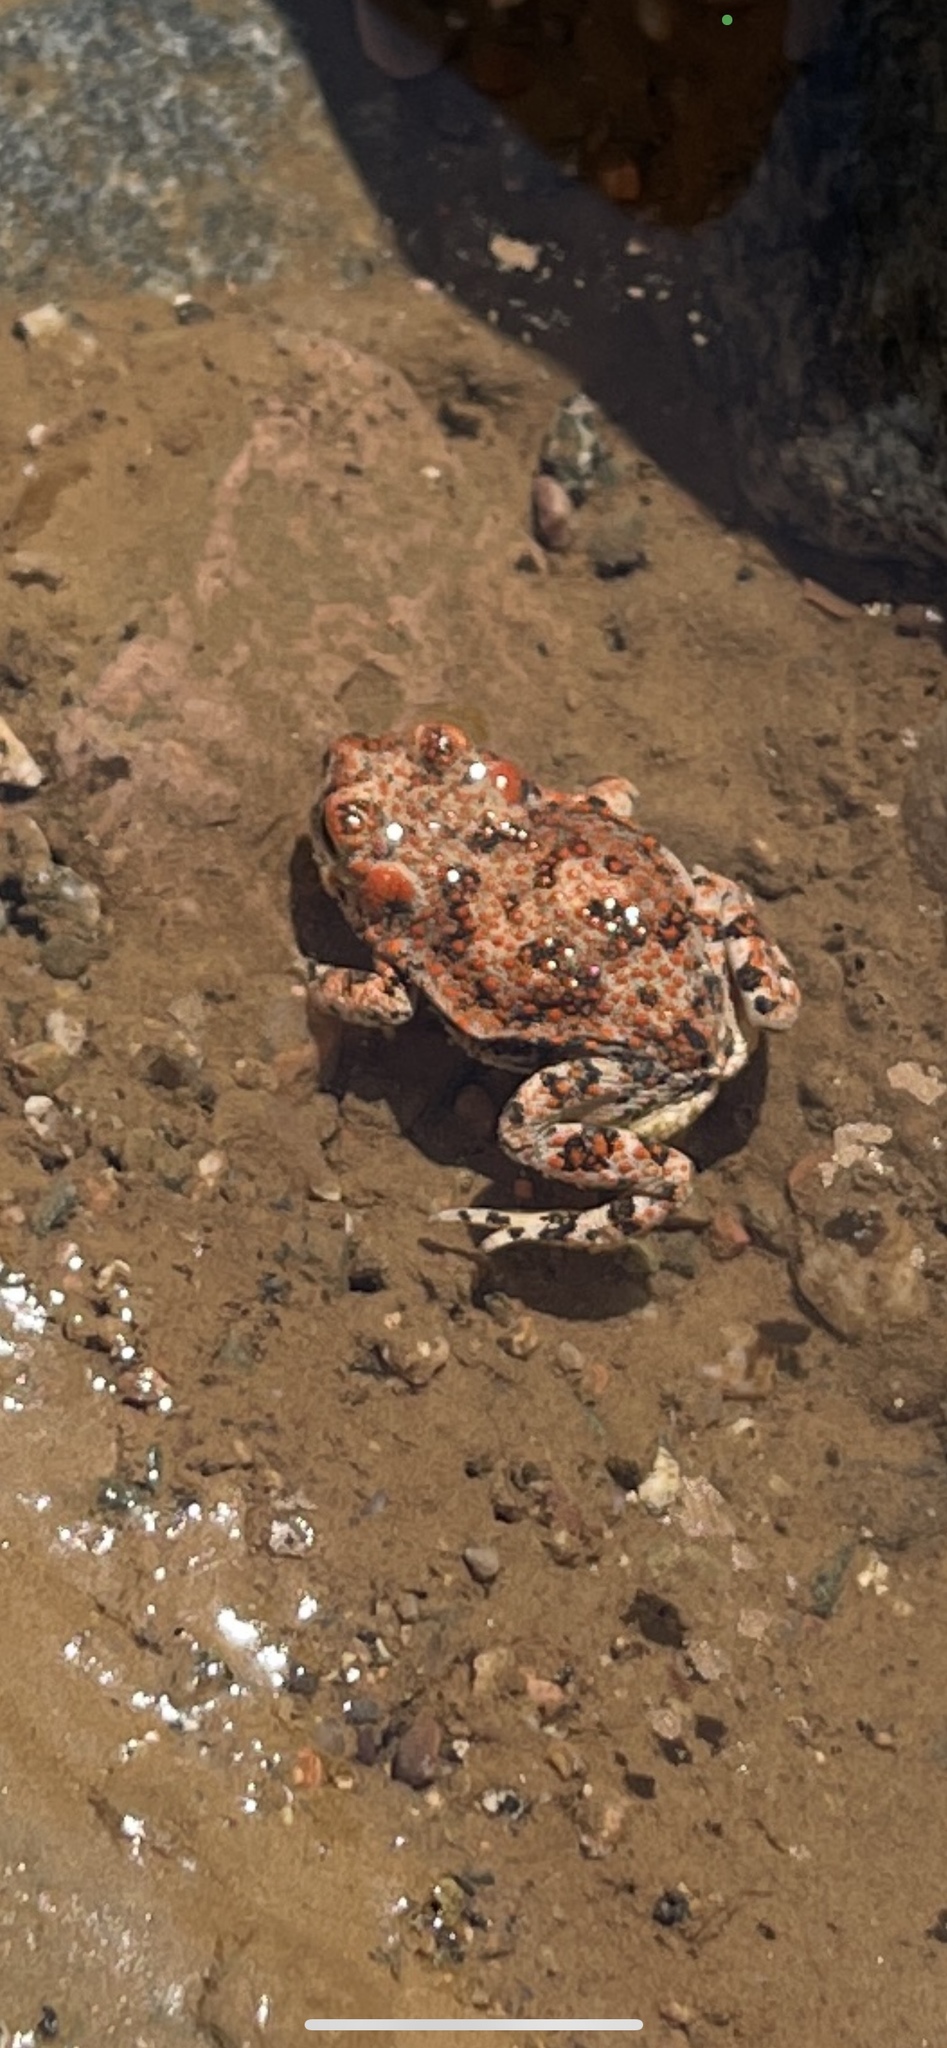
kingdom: Animalia
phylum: Chordata
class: Amphibia
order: Anura
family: Bufonidae
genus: Anaxyrus
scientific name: Anaxyrus punctatus
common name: Red-spotted toad
